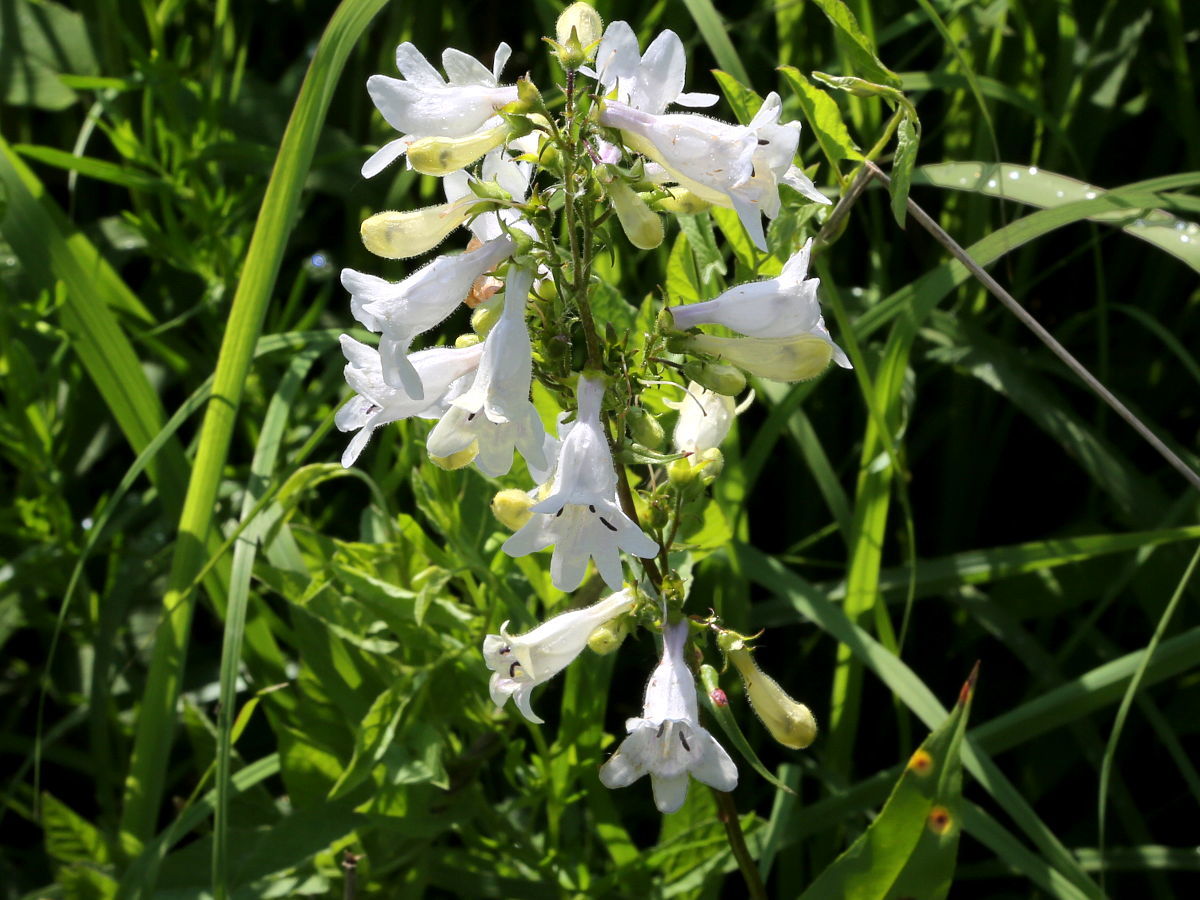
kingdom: Plantae
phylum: Tracheophyta
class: Magnoliopsida
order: Lamiales
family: Plantaginaceae
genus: Penstemon
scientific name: Penstemon digitalis
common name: Foxglove beardtongue
